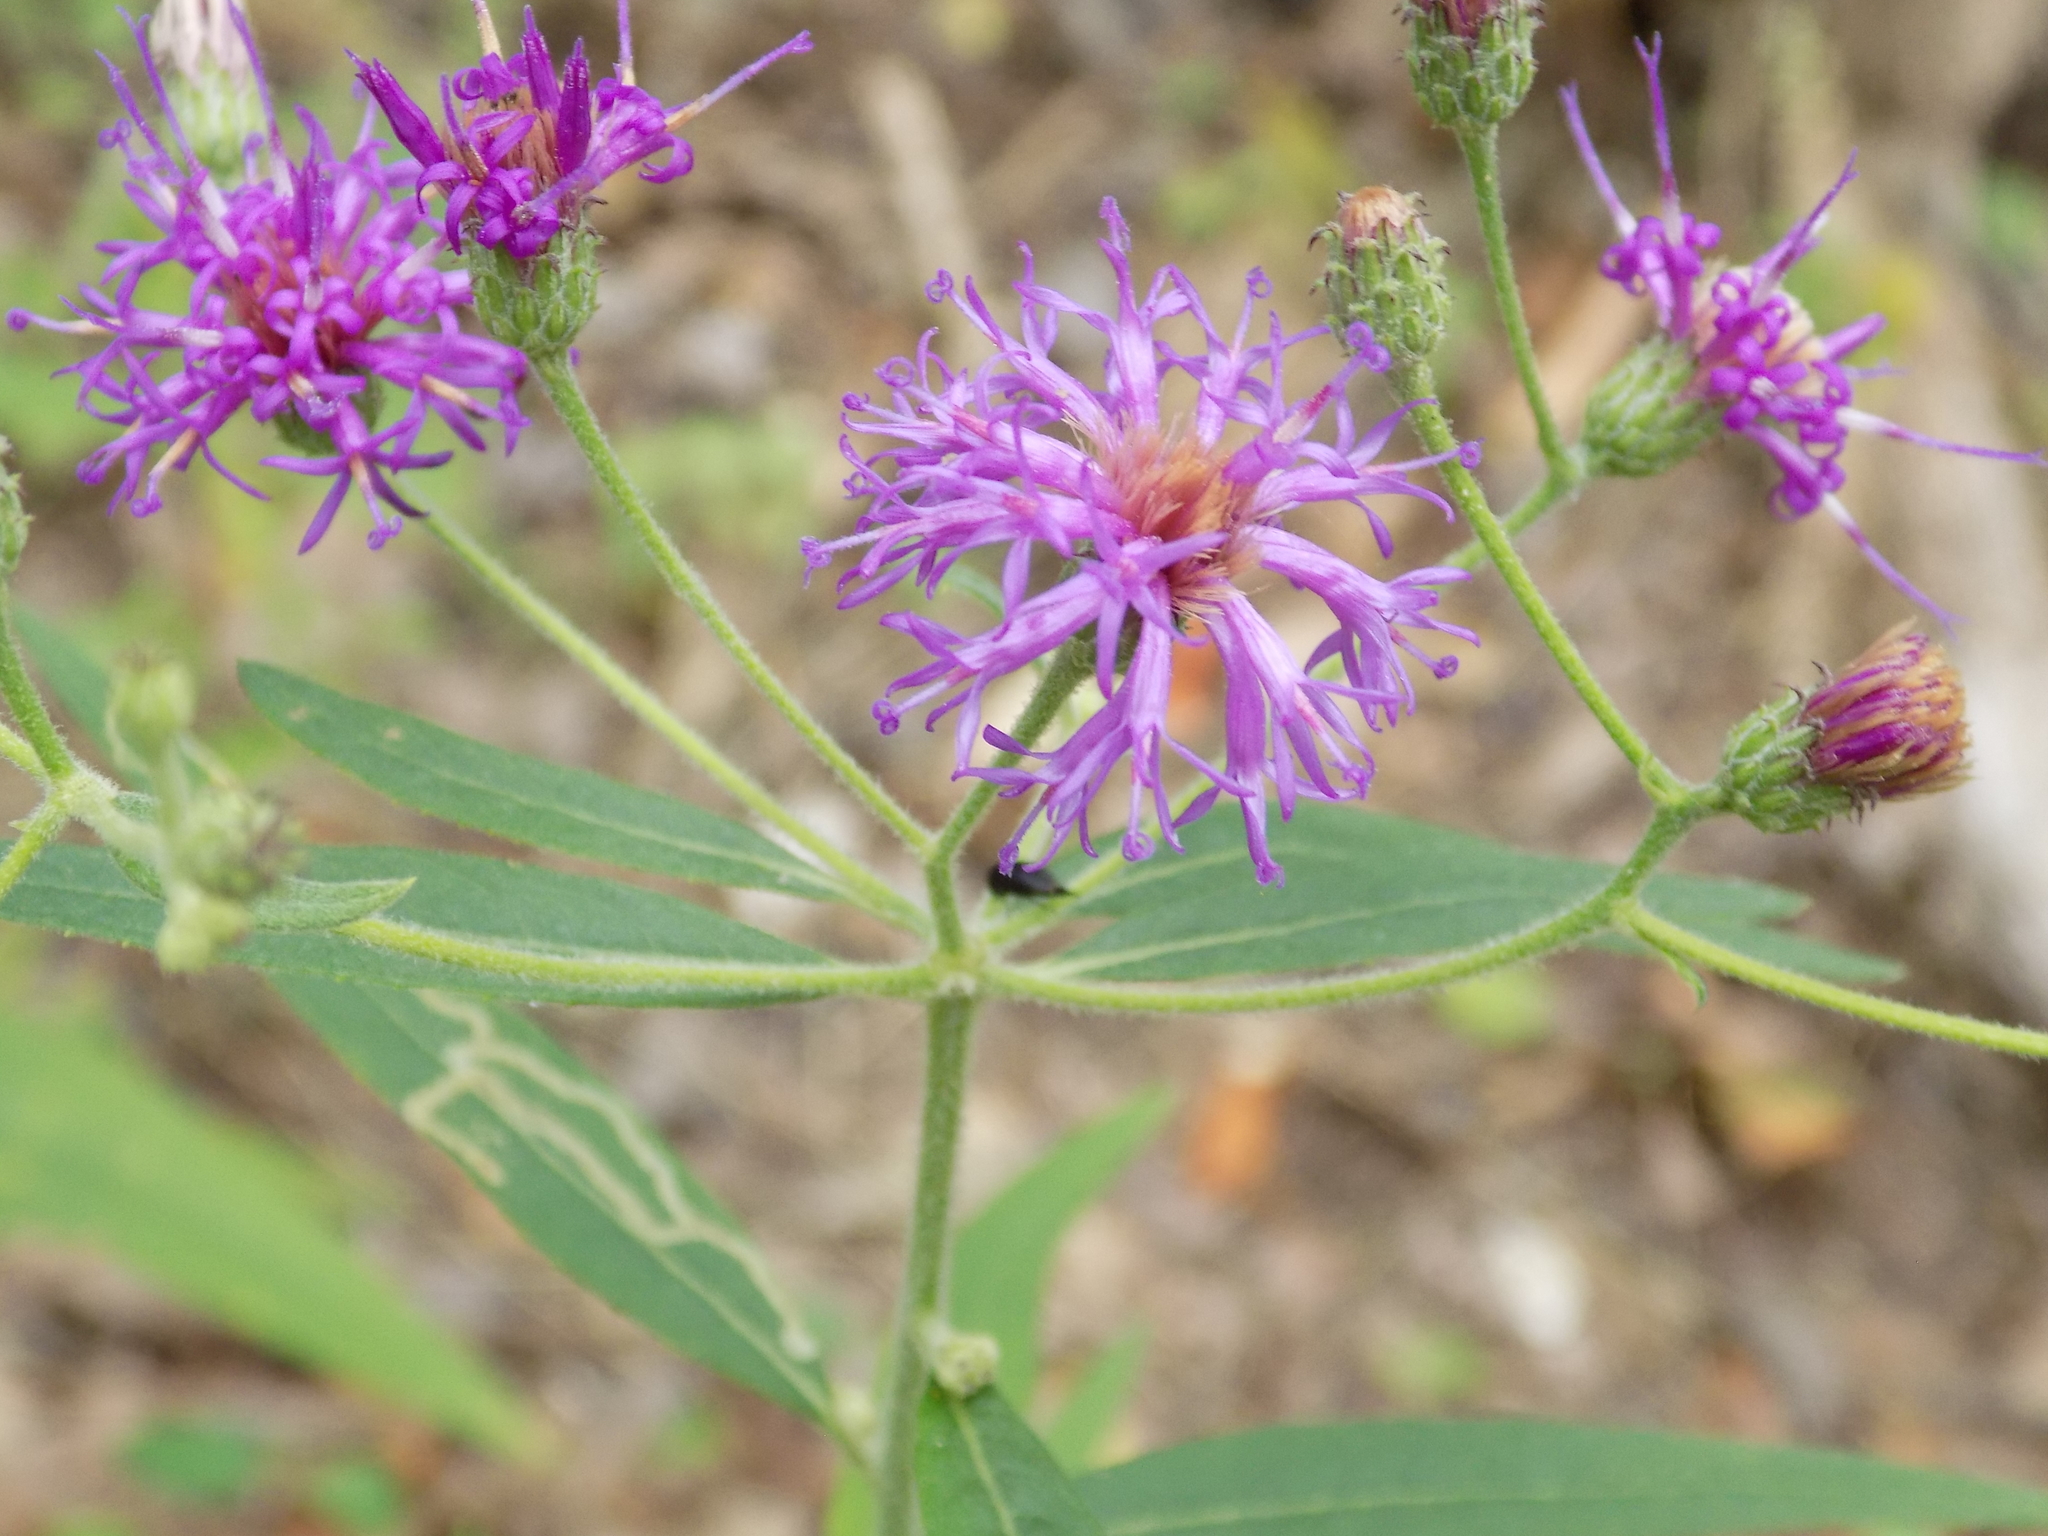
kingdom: Plantae
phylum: Tracheophyta
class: Magnoliopsida
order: Asterales
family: Asteraceae
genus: Vernonia
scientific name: Vernonia baldwinii
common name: Western ironweed
